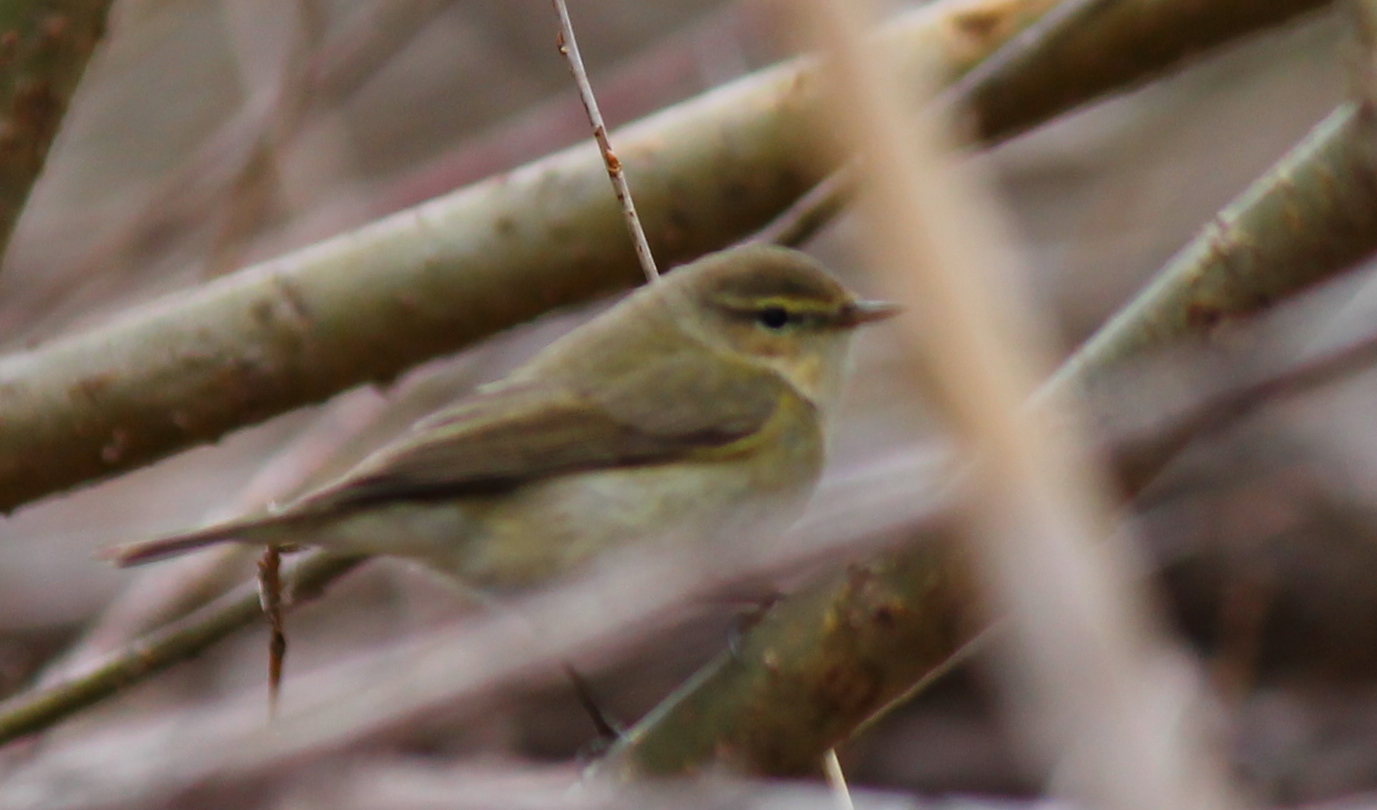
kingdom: Animalia
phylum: Chordata
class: Aves
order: Passeriformes
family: Phylloscopidae
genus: Phylloscopus
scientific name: Phylloscopus collybita
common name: Common chiffchaff
